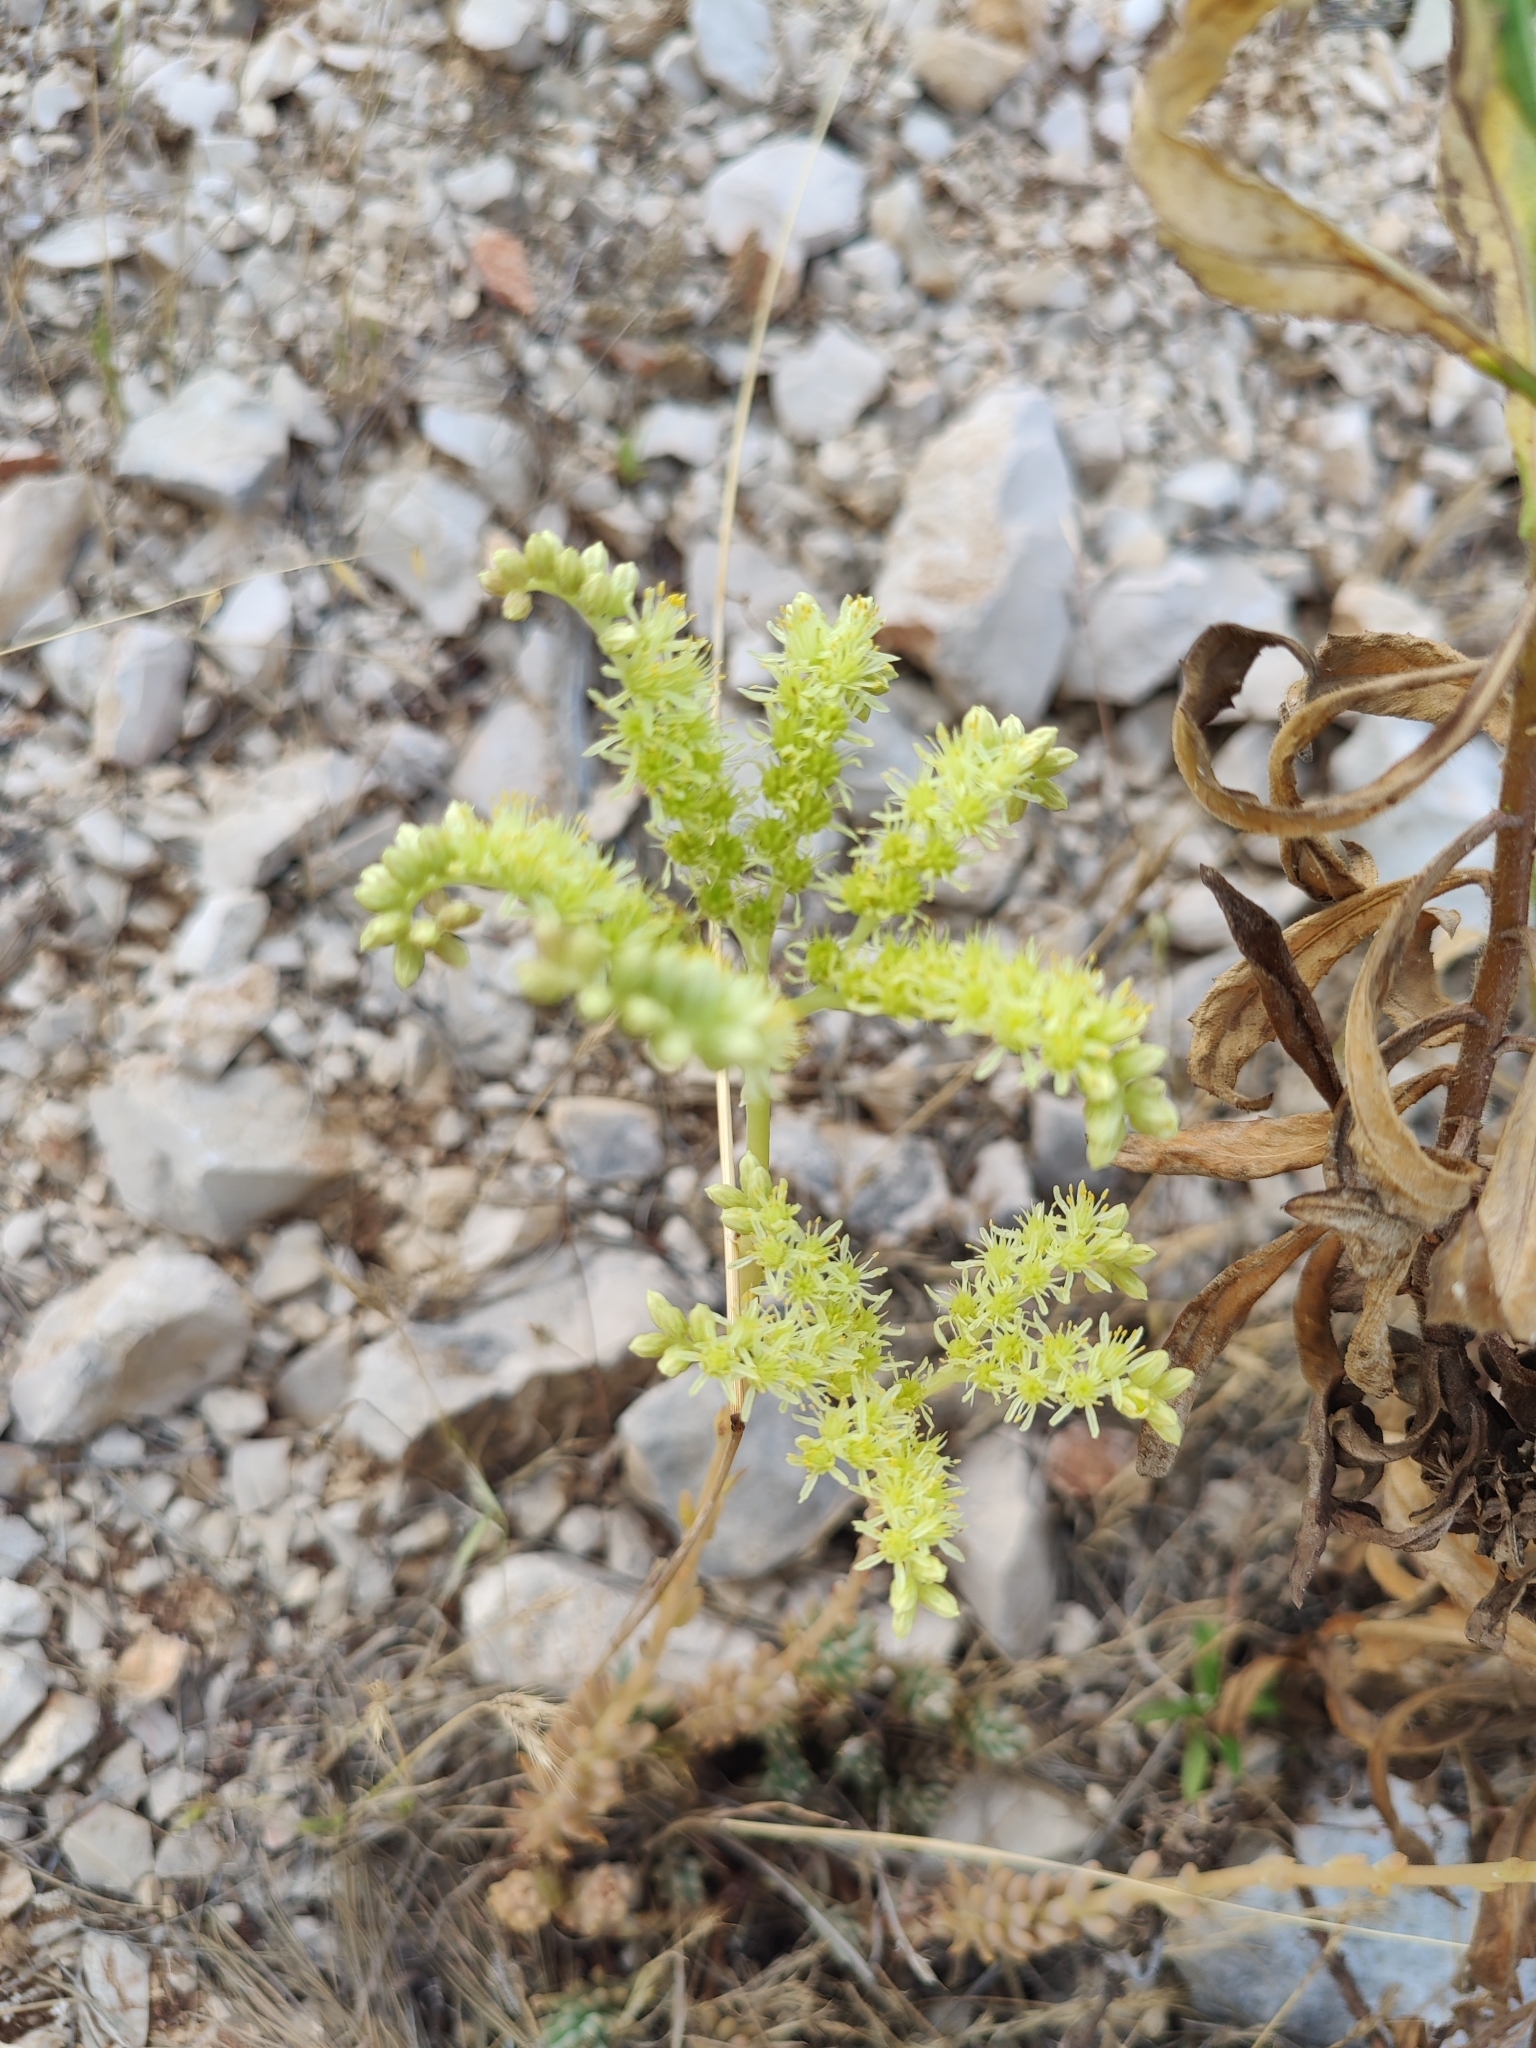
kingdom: Plantae
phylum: Tracheophyta
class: Magnoliopsida
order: Saxifragales
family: Crassulaceae
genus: Petrosedum
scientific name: Petrosedum sediforme
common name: Pale stonecrop
